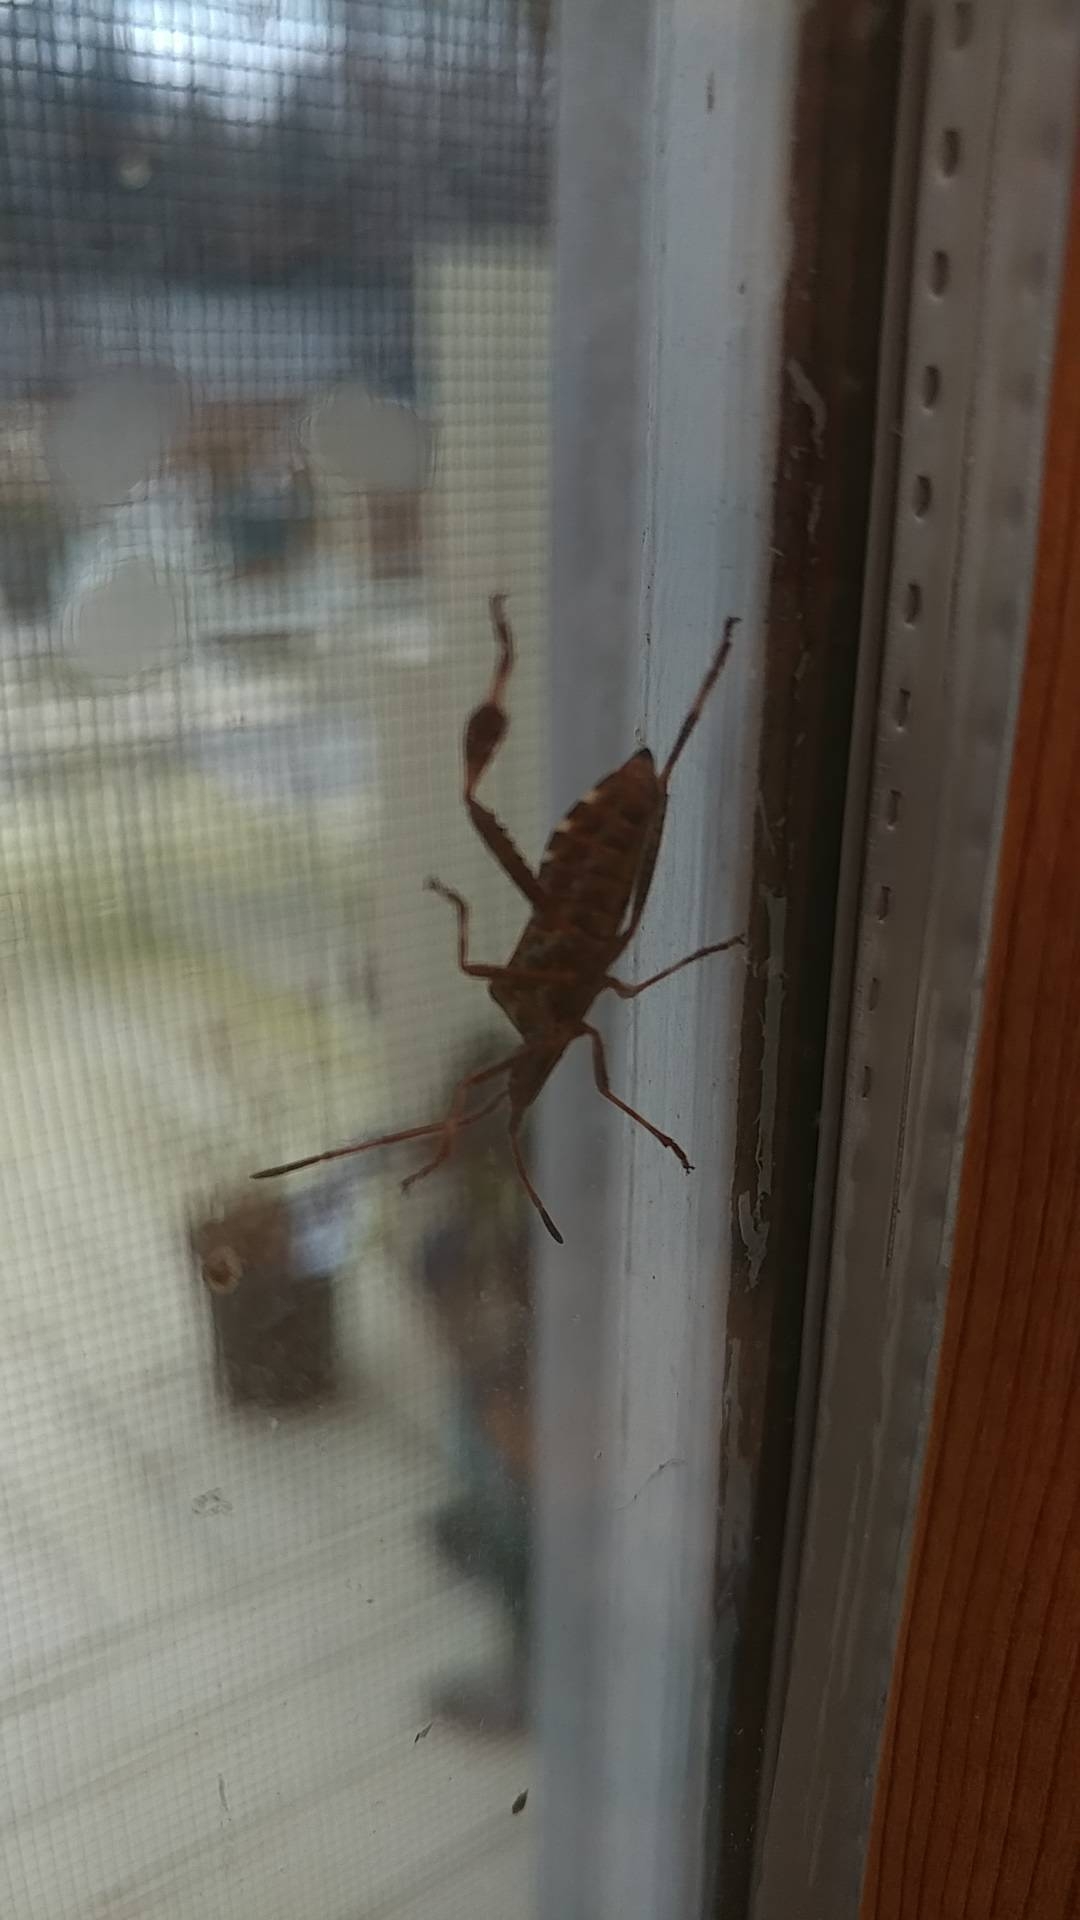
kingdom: Animalia
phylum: Arthropoda
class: Insecta
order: Hemiptera
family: Coreidae
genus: Leptoglossus
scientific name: Leptoglossus occidentalis
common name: Western conifer-seed bug
